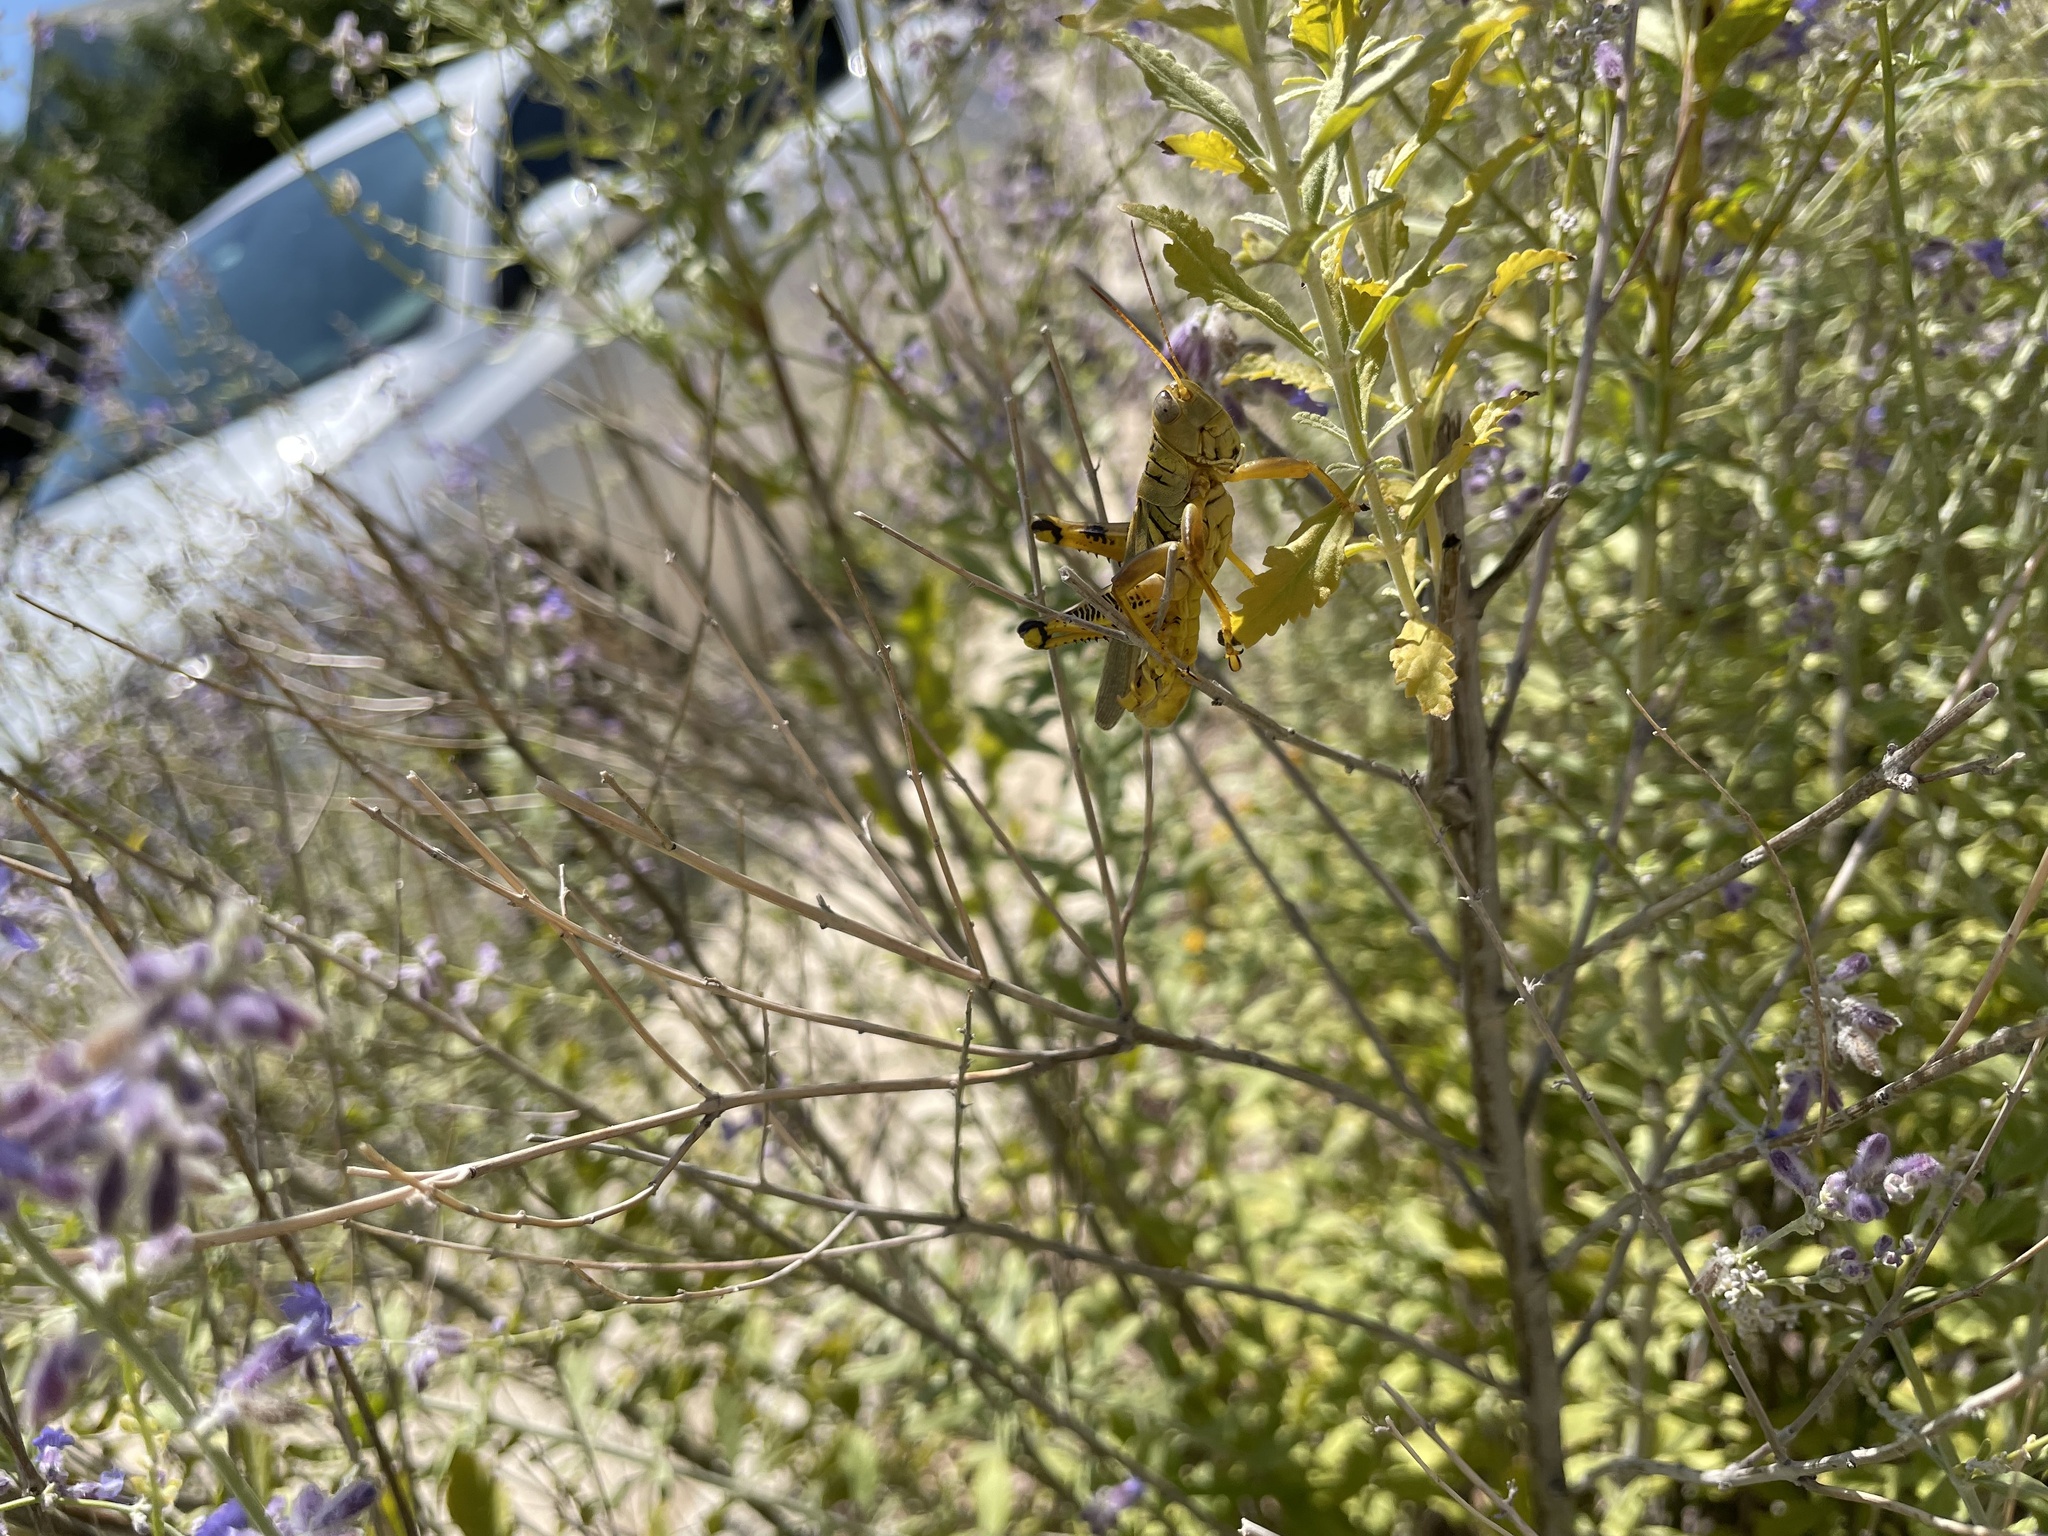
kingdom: Animalia
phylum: Arthropoda
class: Insecta
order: Orthoptera
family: Acrididae
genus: Melanoplus
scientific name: Melanoplus differentialis
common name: Differential grasshopper
